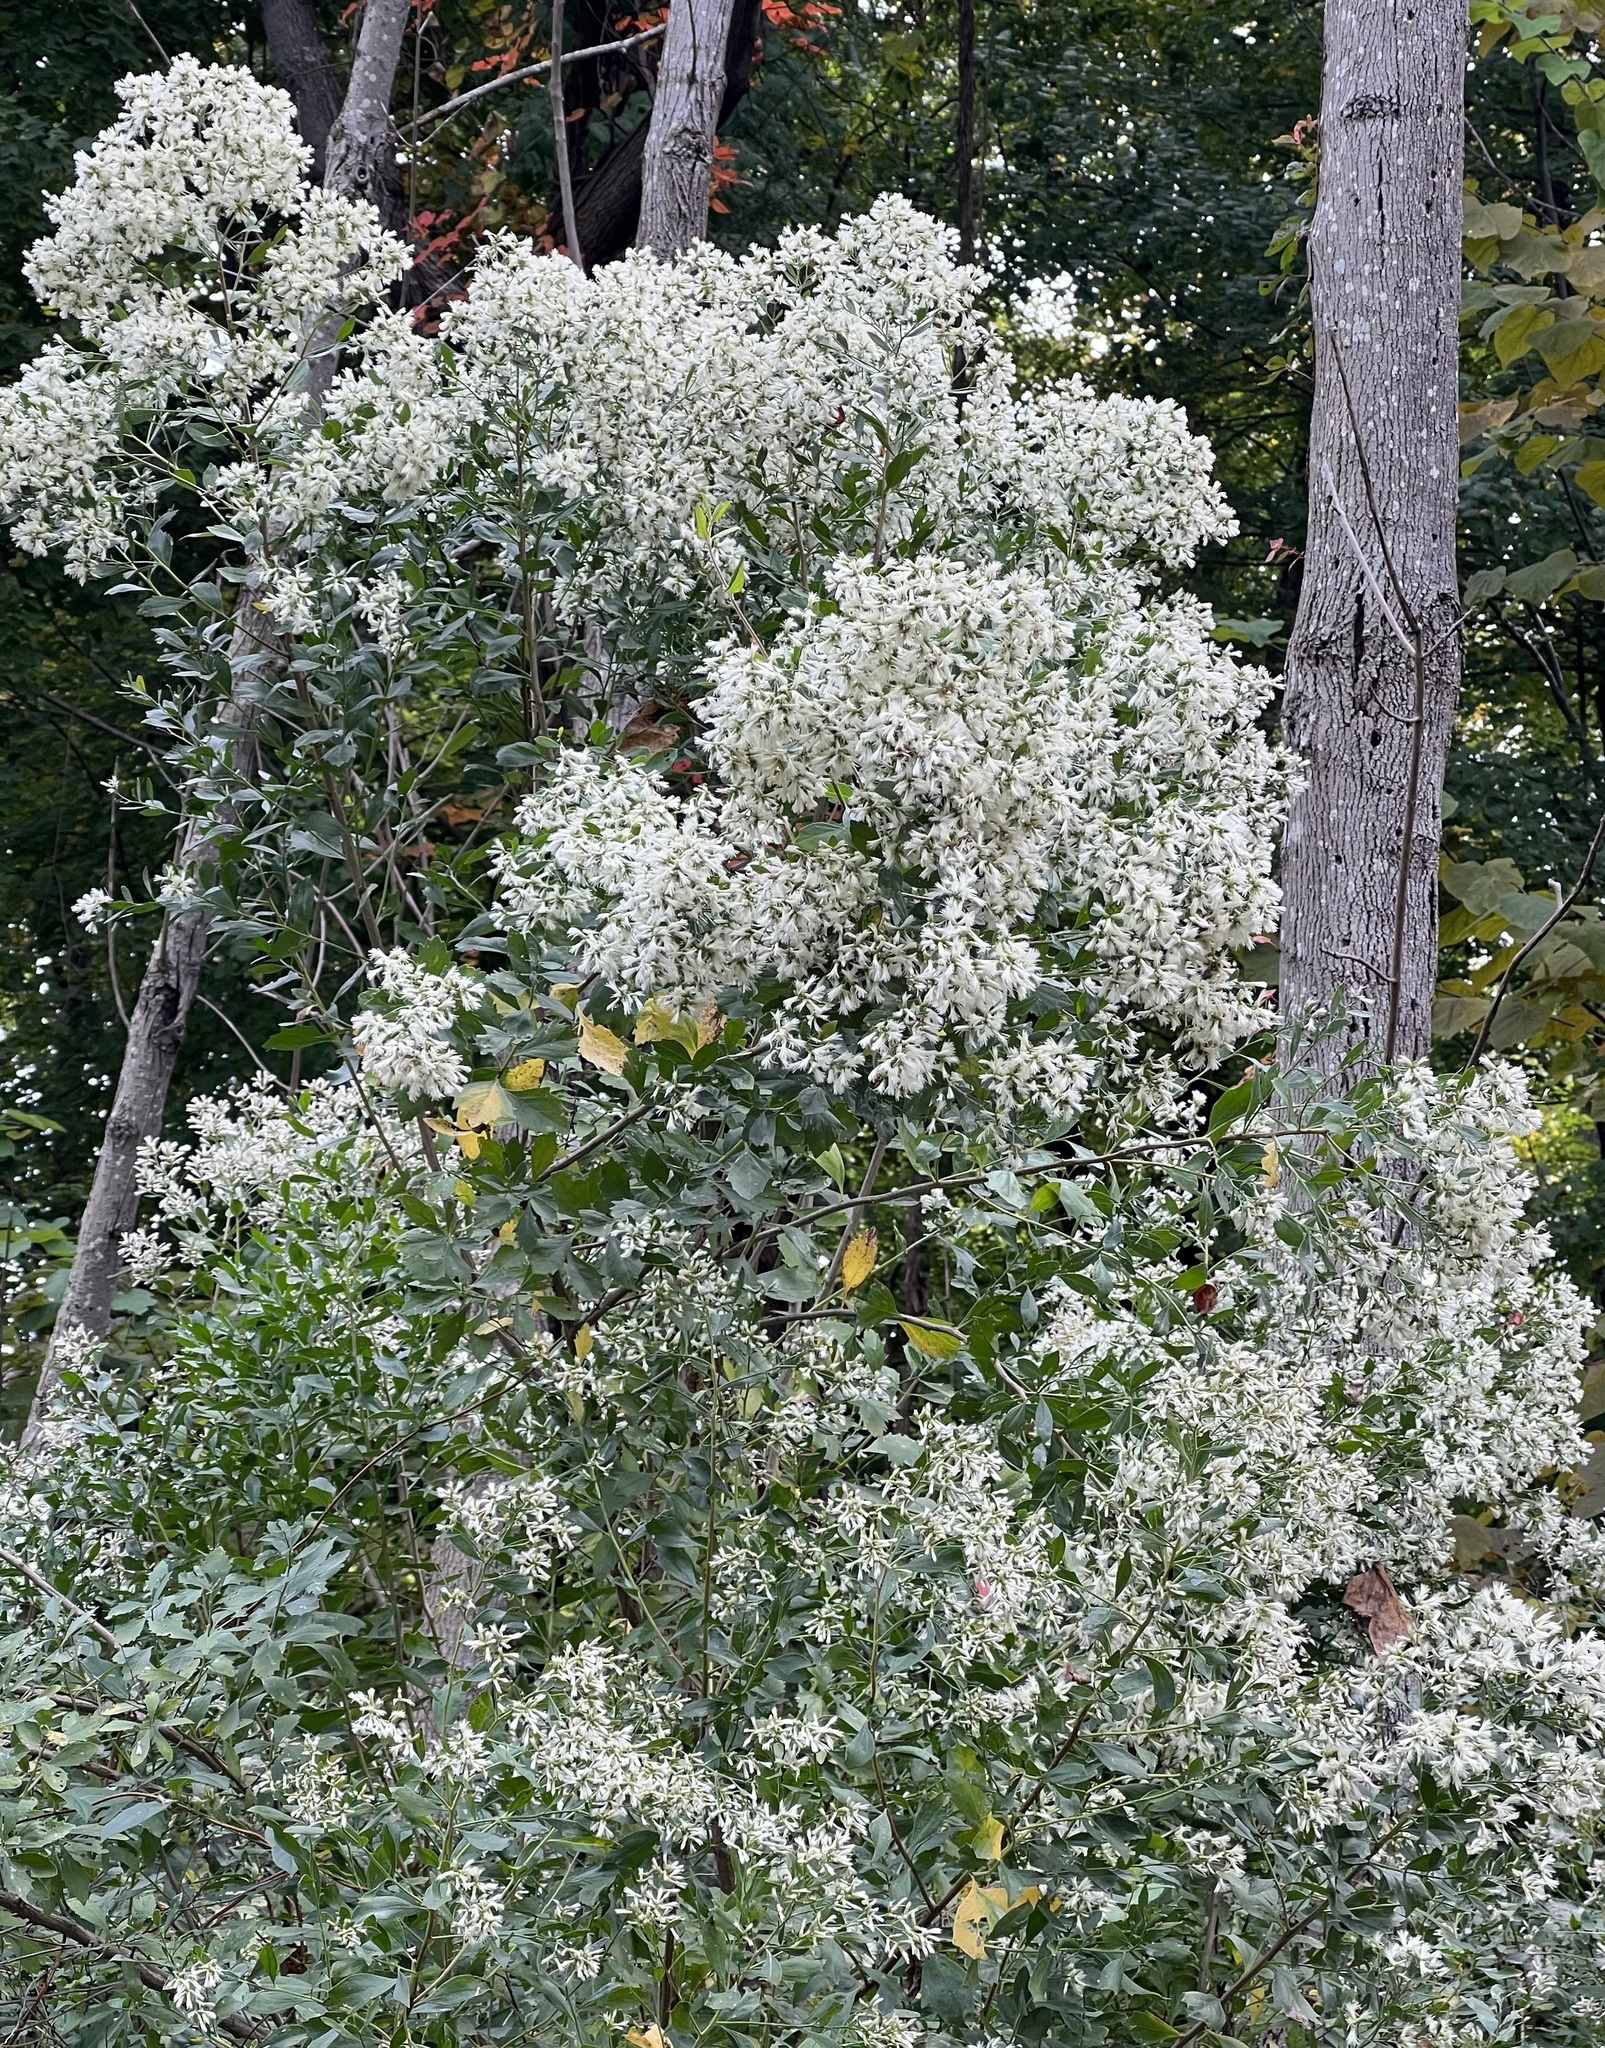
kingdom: Plantae
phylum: Tracheophyta
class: Magnoliopsida
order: Asterales
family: Asteraceae
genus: Baccharis
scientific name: Baccharis halimifolia
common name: Eastern baccharis
